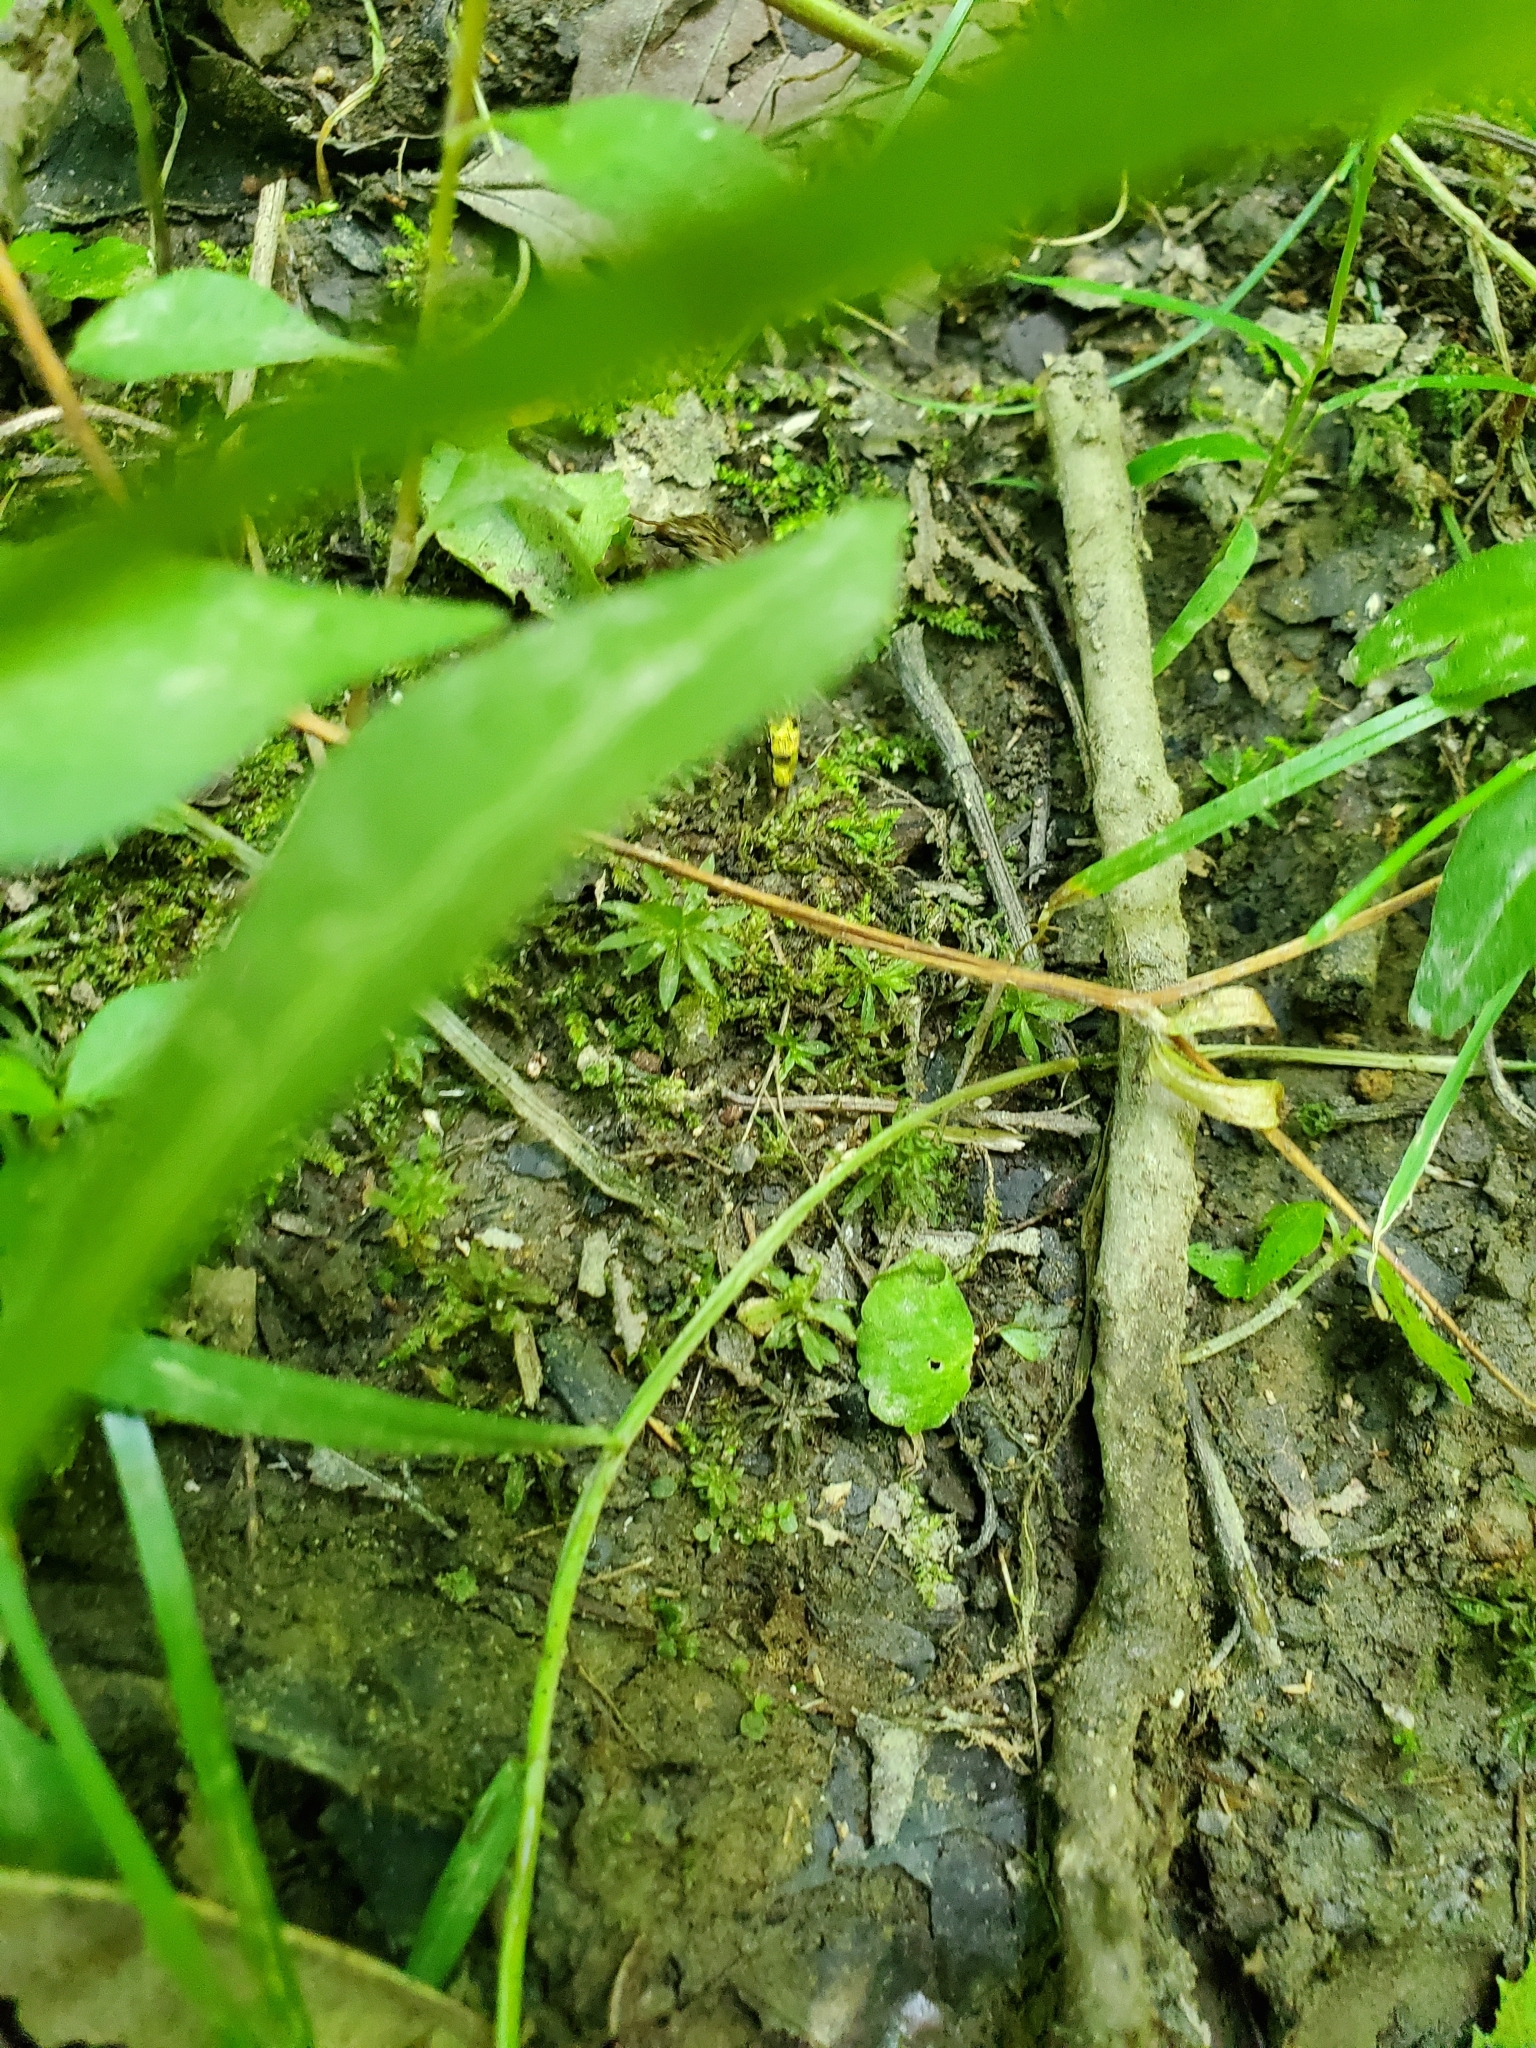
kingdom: Animalia
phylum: Arthropoda
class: Insecta
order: Coleoptera
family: Staphylinidae
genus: Ontholestes
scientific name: Ontholestes cingulatus
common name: Gold-and-brown rove beetle
